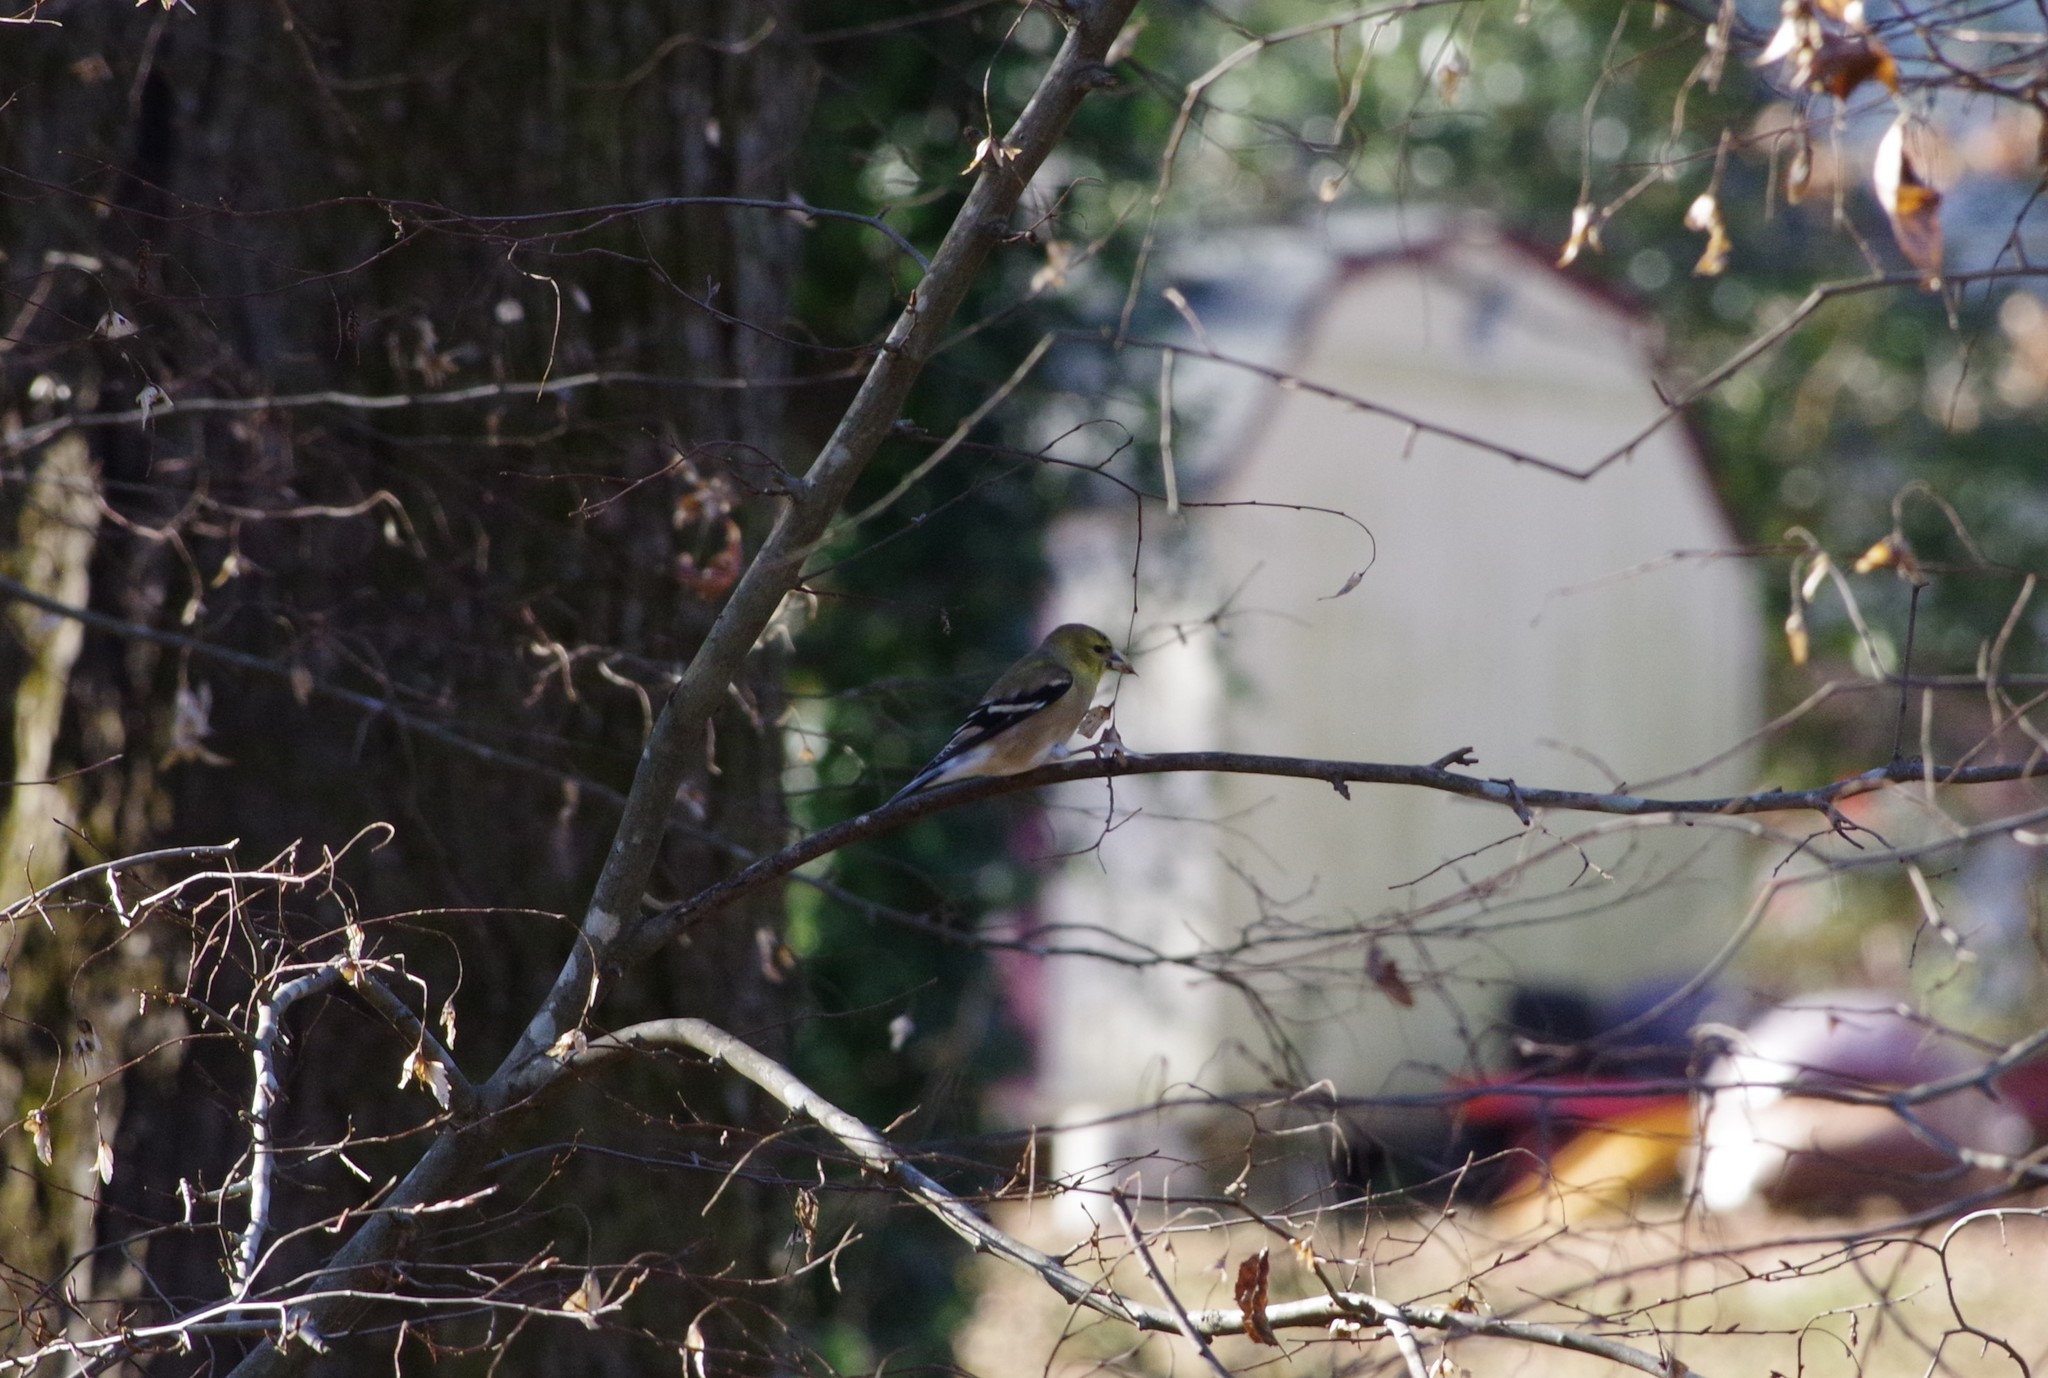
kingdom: Animalia
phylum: Chordata
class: Aves
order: Passeriformes
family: Fringillidae
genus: Spinus
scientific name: Spinus tristis
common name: American goldfinch
